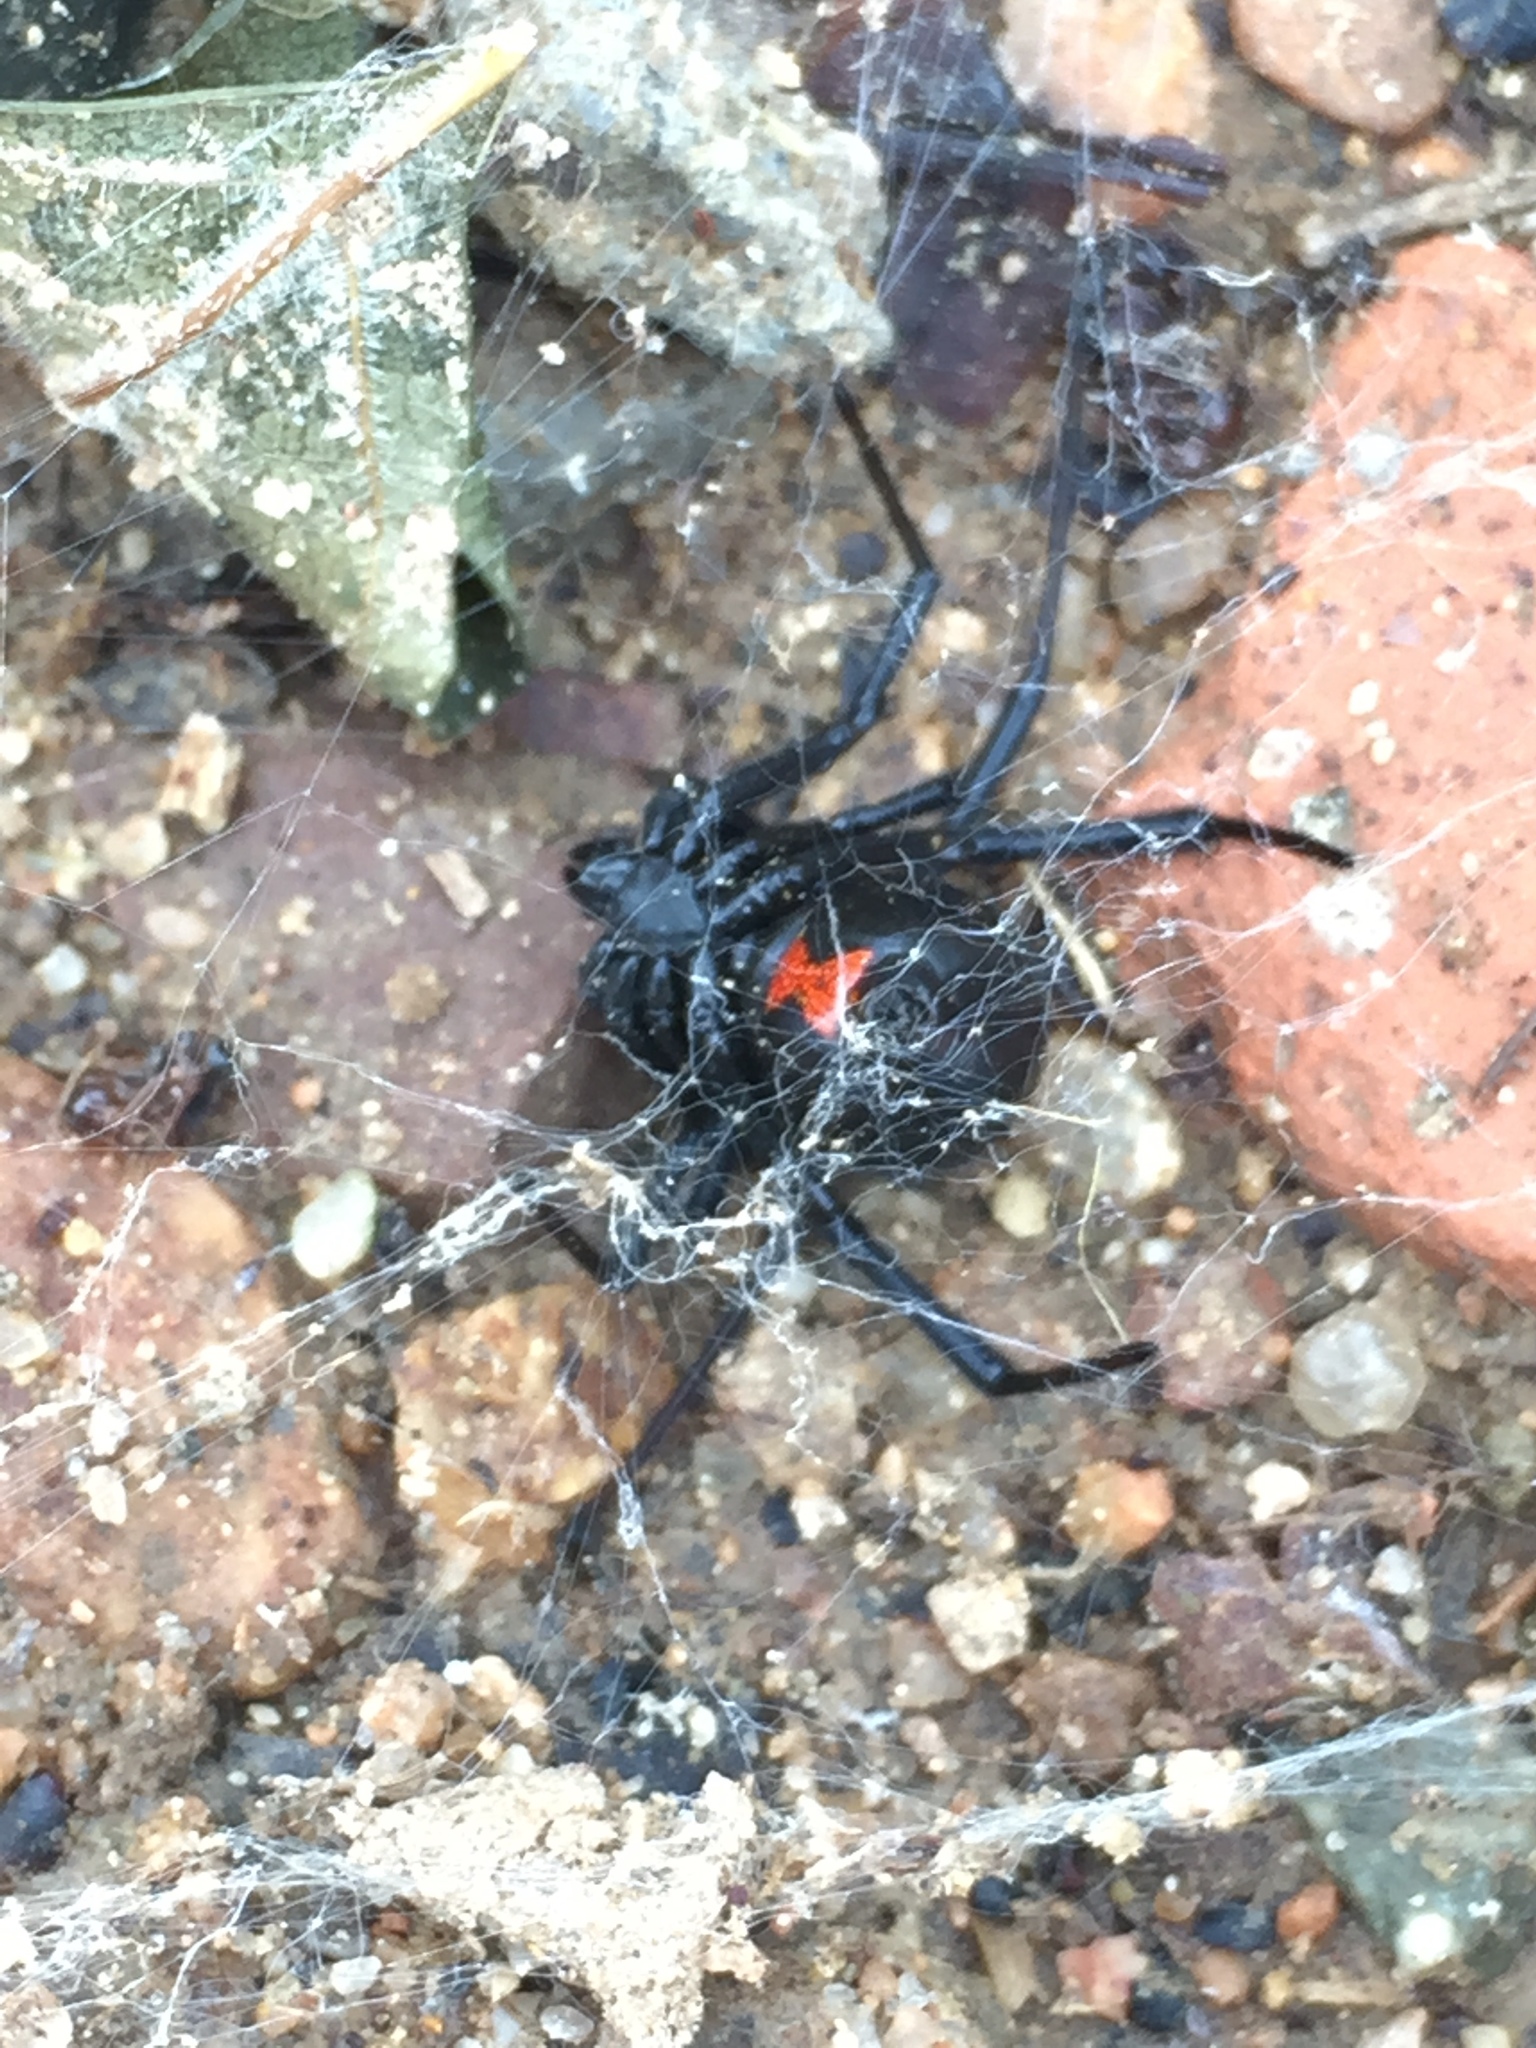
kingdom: Animalia
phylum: Arthropoda
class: Arachnida
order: Araneae
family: Theridiidae
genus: Latrodectus
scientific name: Latrodectus hesperus
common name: Western black widow
